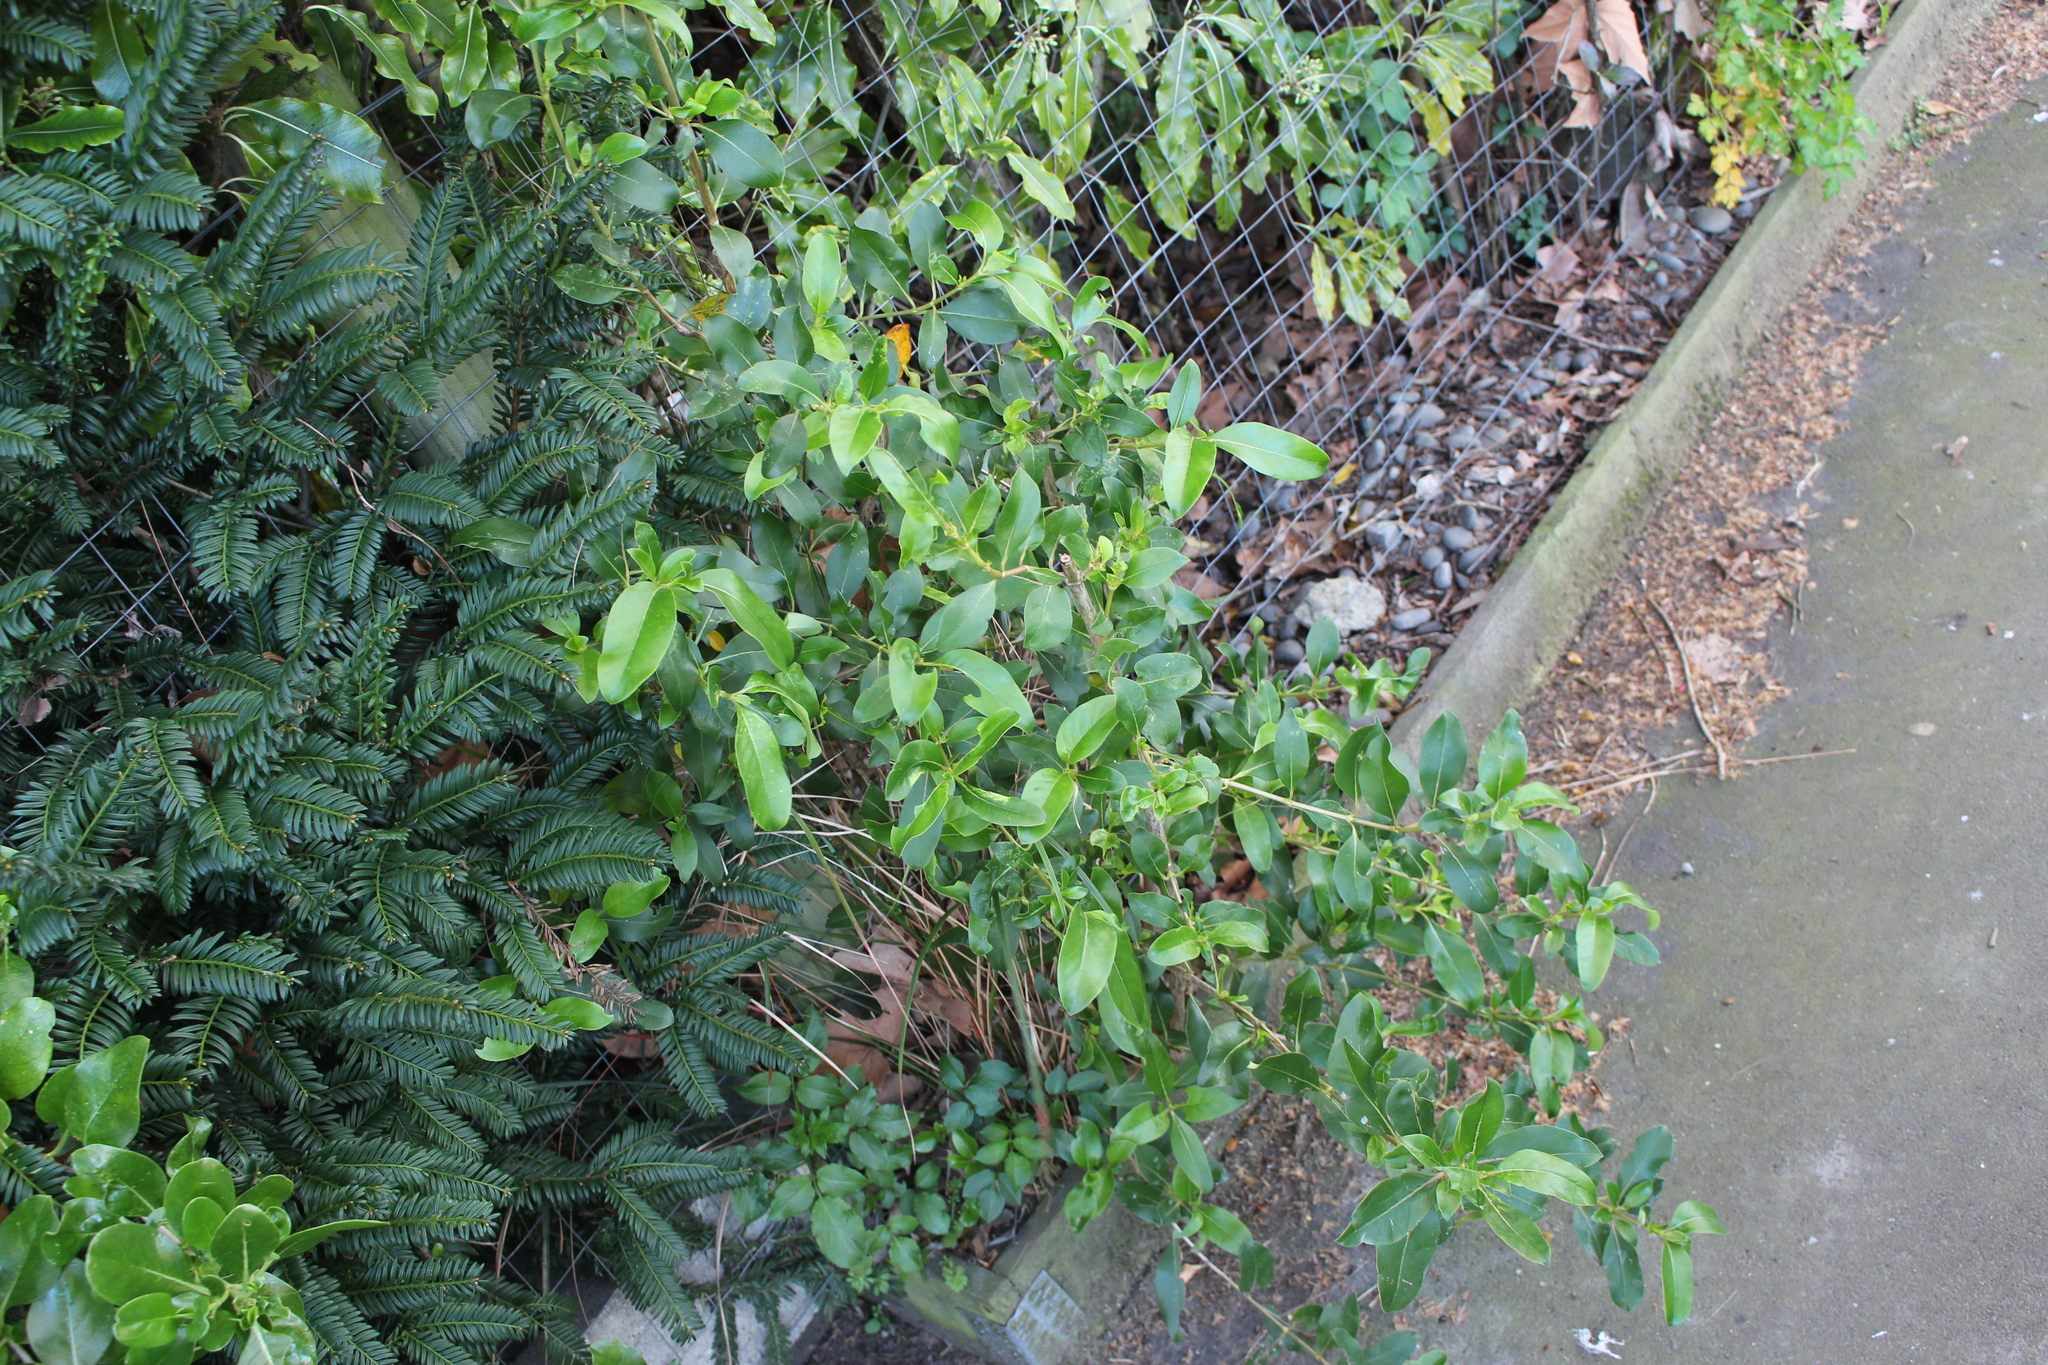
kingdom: Plantae
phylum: Tracheophyta
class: Magnoliopsida
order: Gentianales
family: Rubiaceae
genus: Coprosma
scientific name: Coprosma robusta
